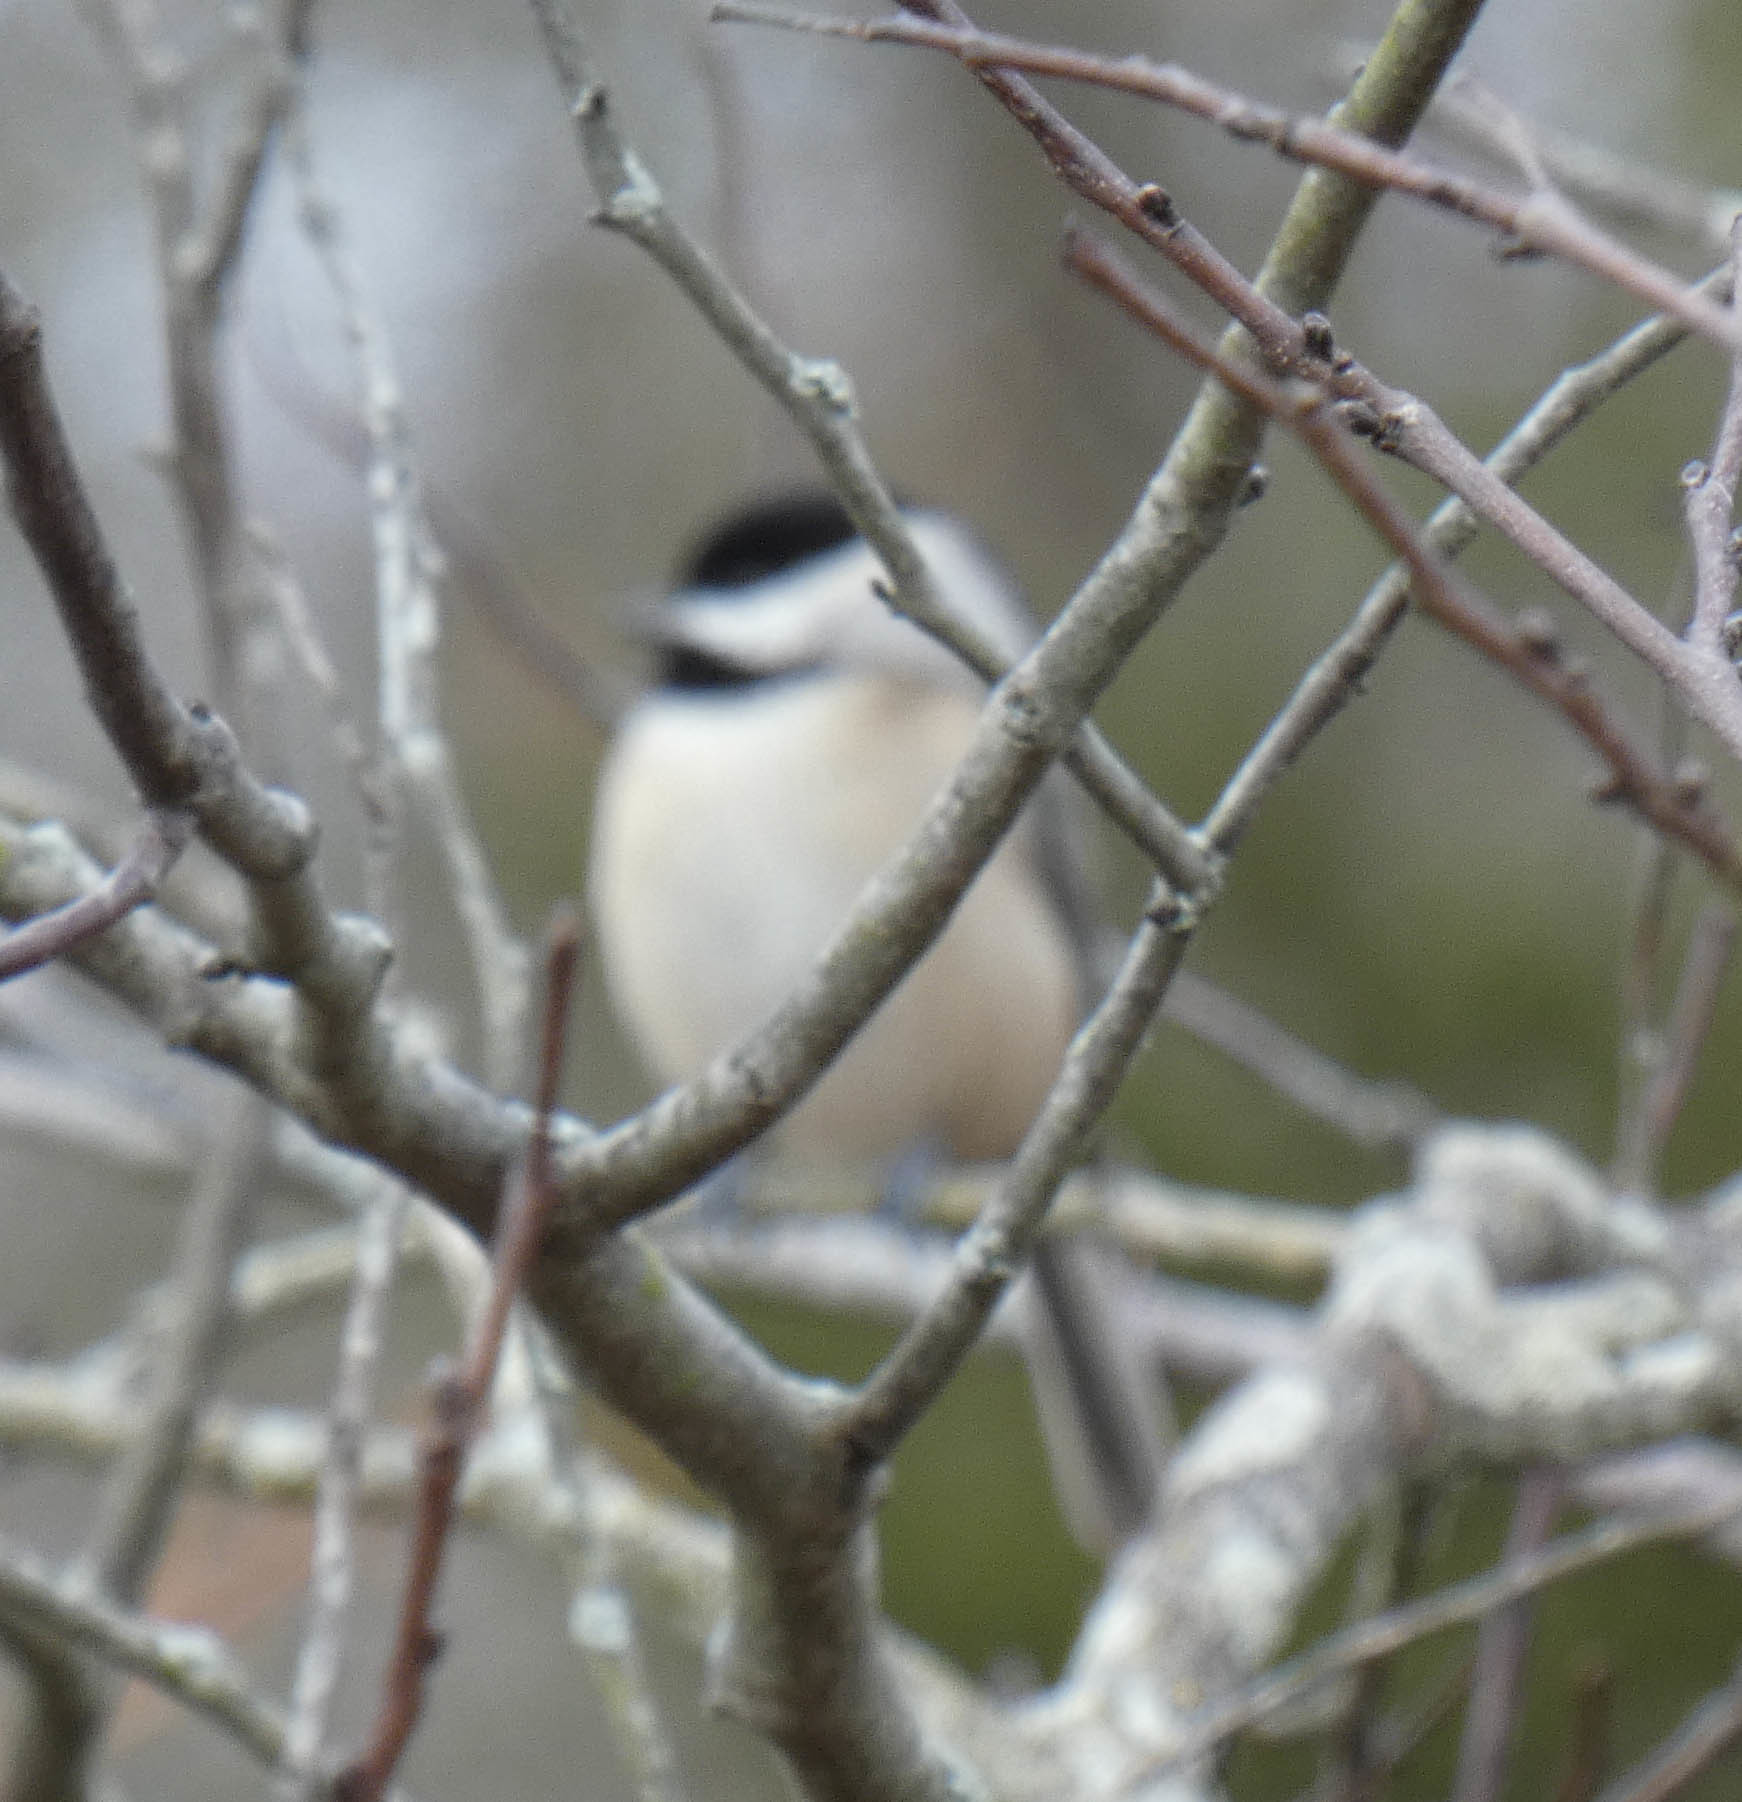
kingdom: Animalia
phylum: Chordata
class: Aves
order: Passeriformes
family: Paridae
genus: Poecile
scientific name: Poecile
